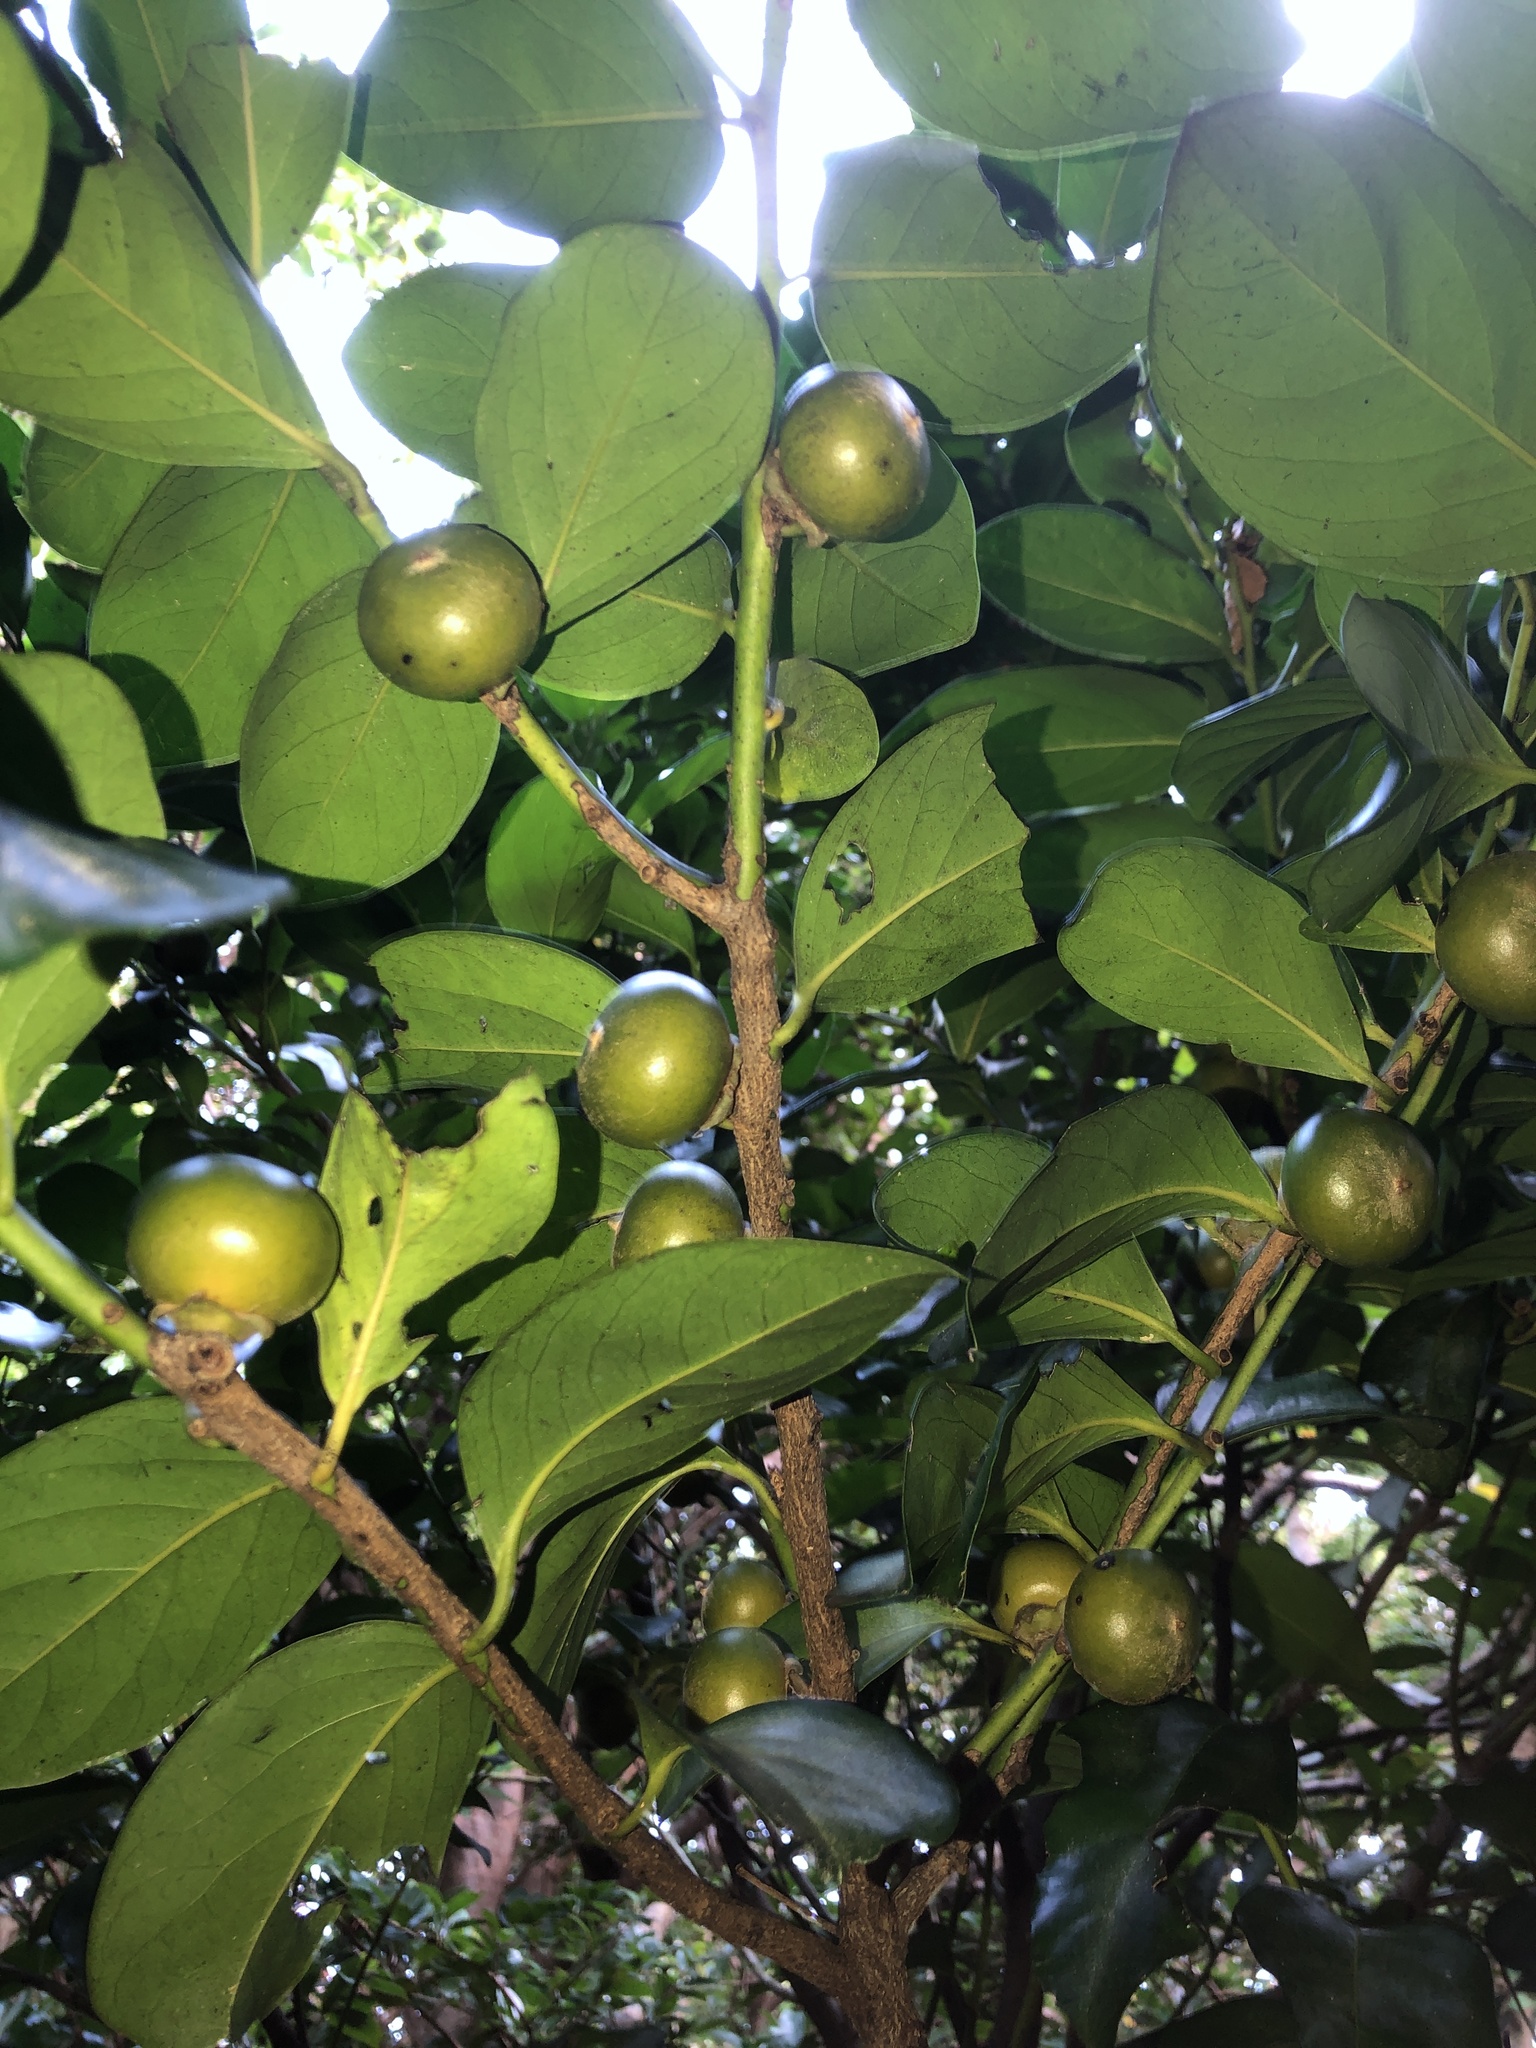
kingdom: Plantae
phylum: Tracheophyta
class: Magnoliopsida
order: Ericales
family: Ebenaceae
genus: Diospyros
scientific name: Diospyros maritima
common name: Malaysian persimmon
